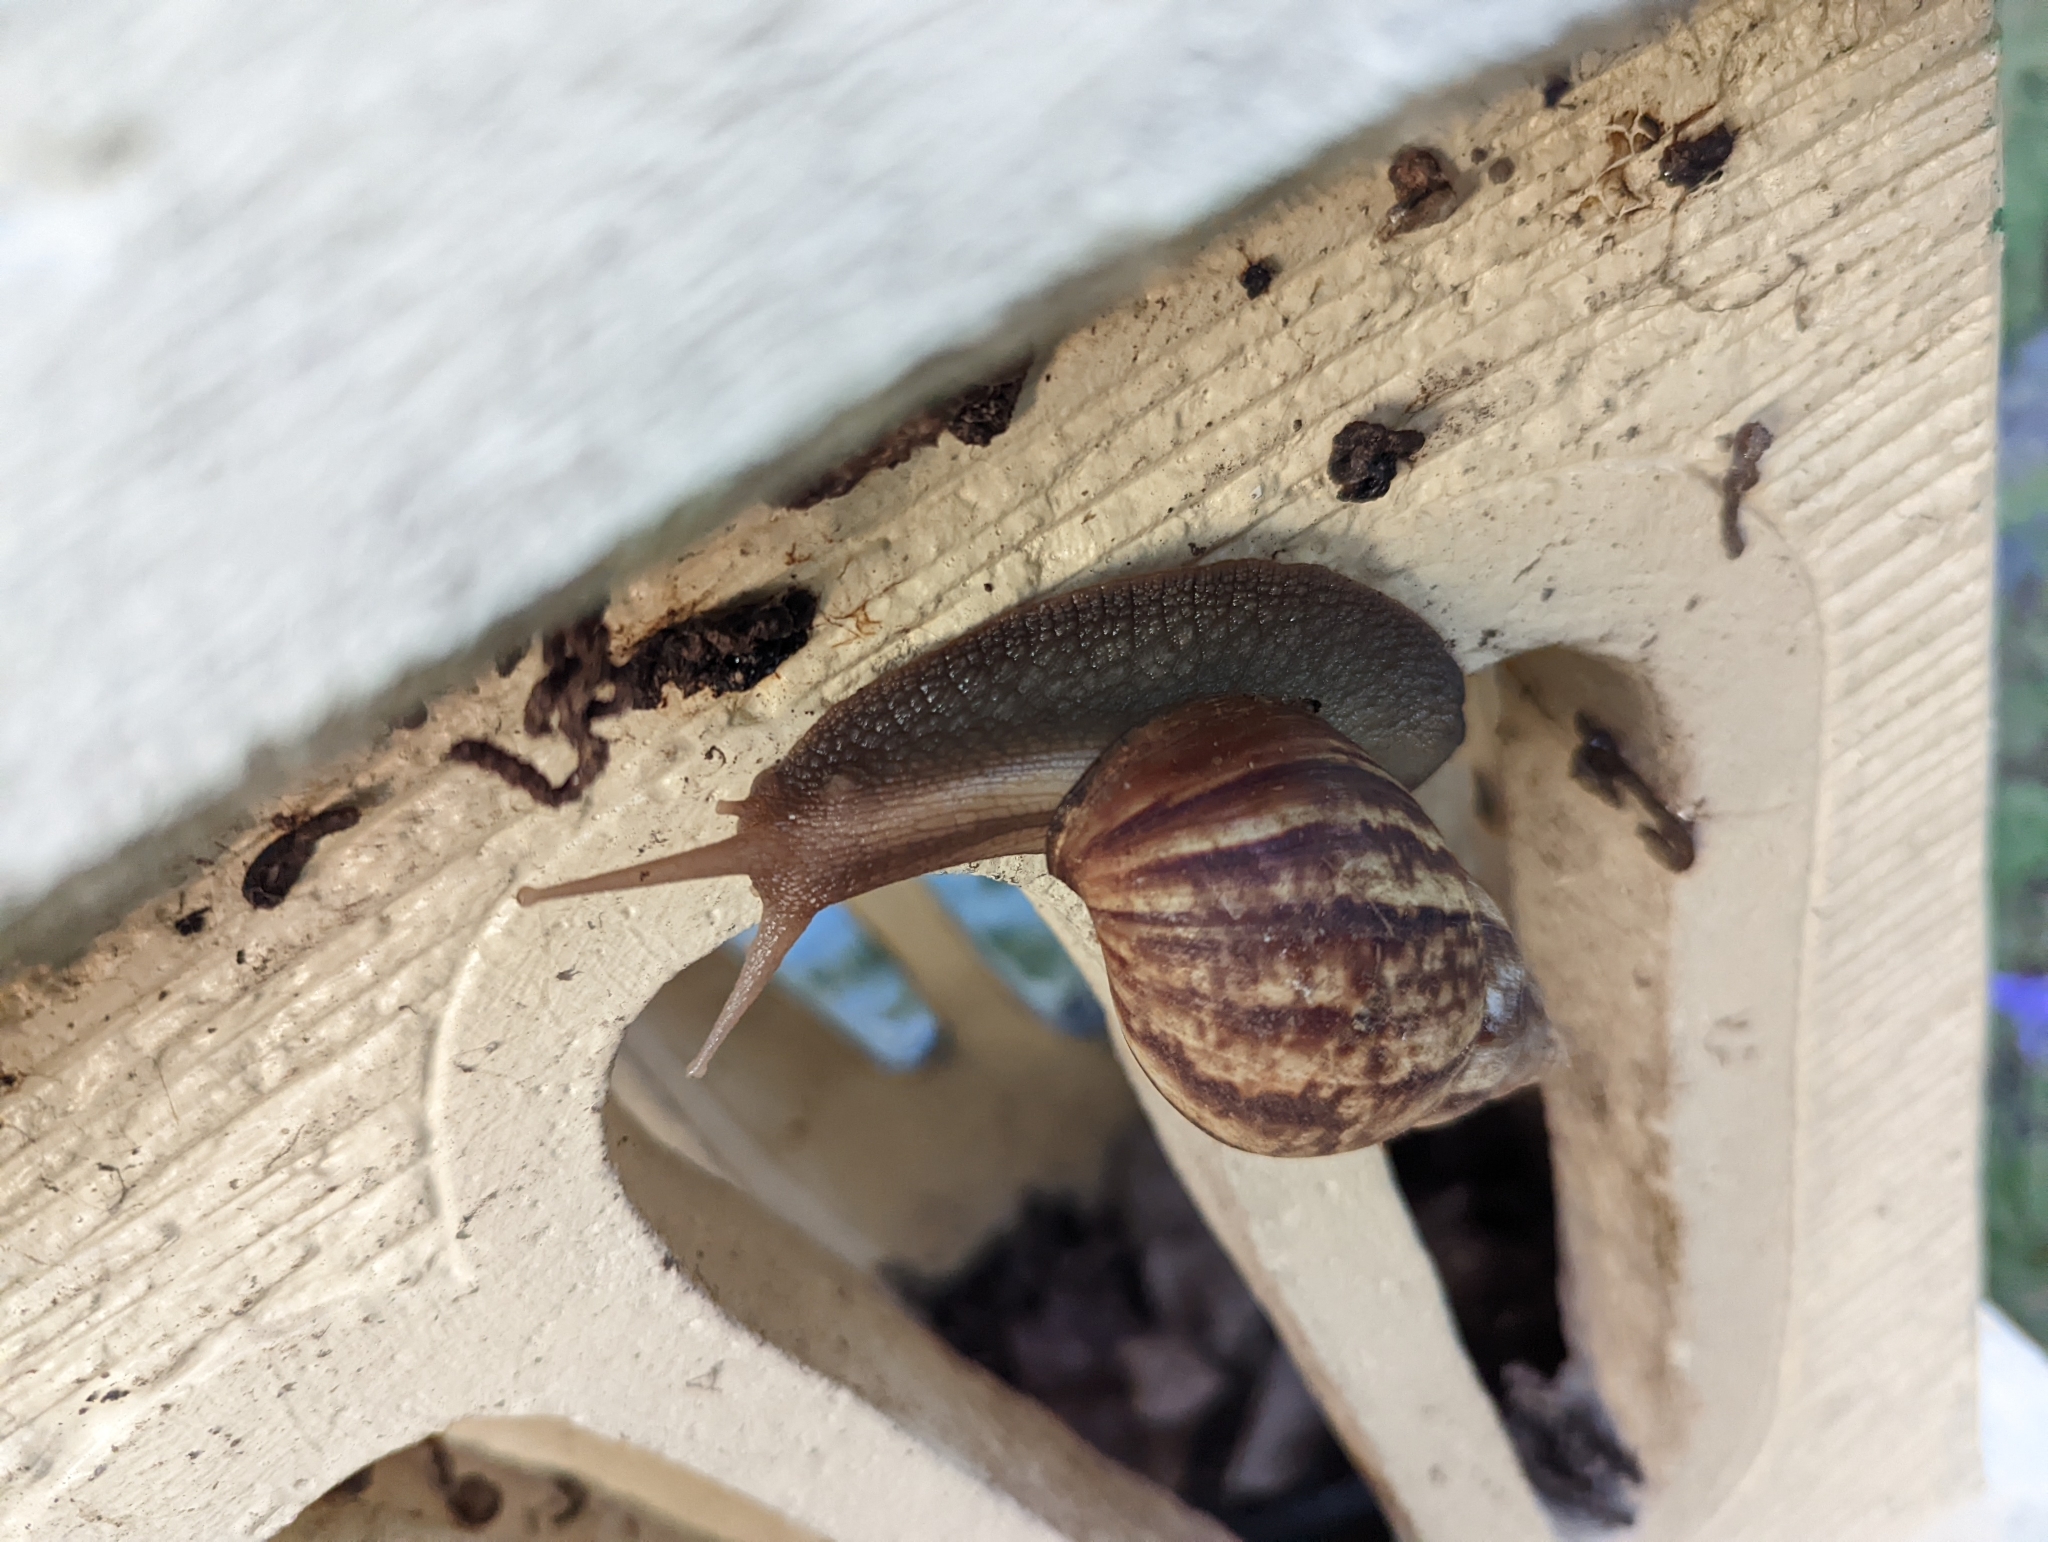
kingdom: Animalia
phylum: Mollusca
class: Gastropoda
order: Stylommatophora
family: Achatinidae
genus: Lissachatina
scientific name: Lissachatina fulica
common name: Giant african snail
